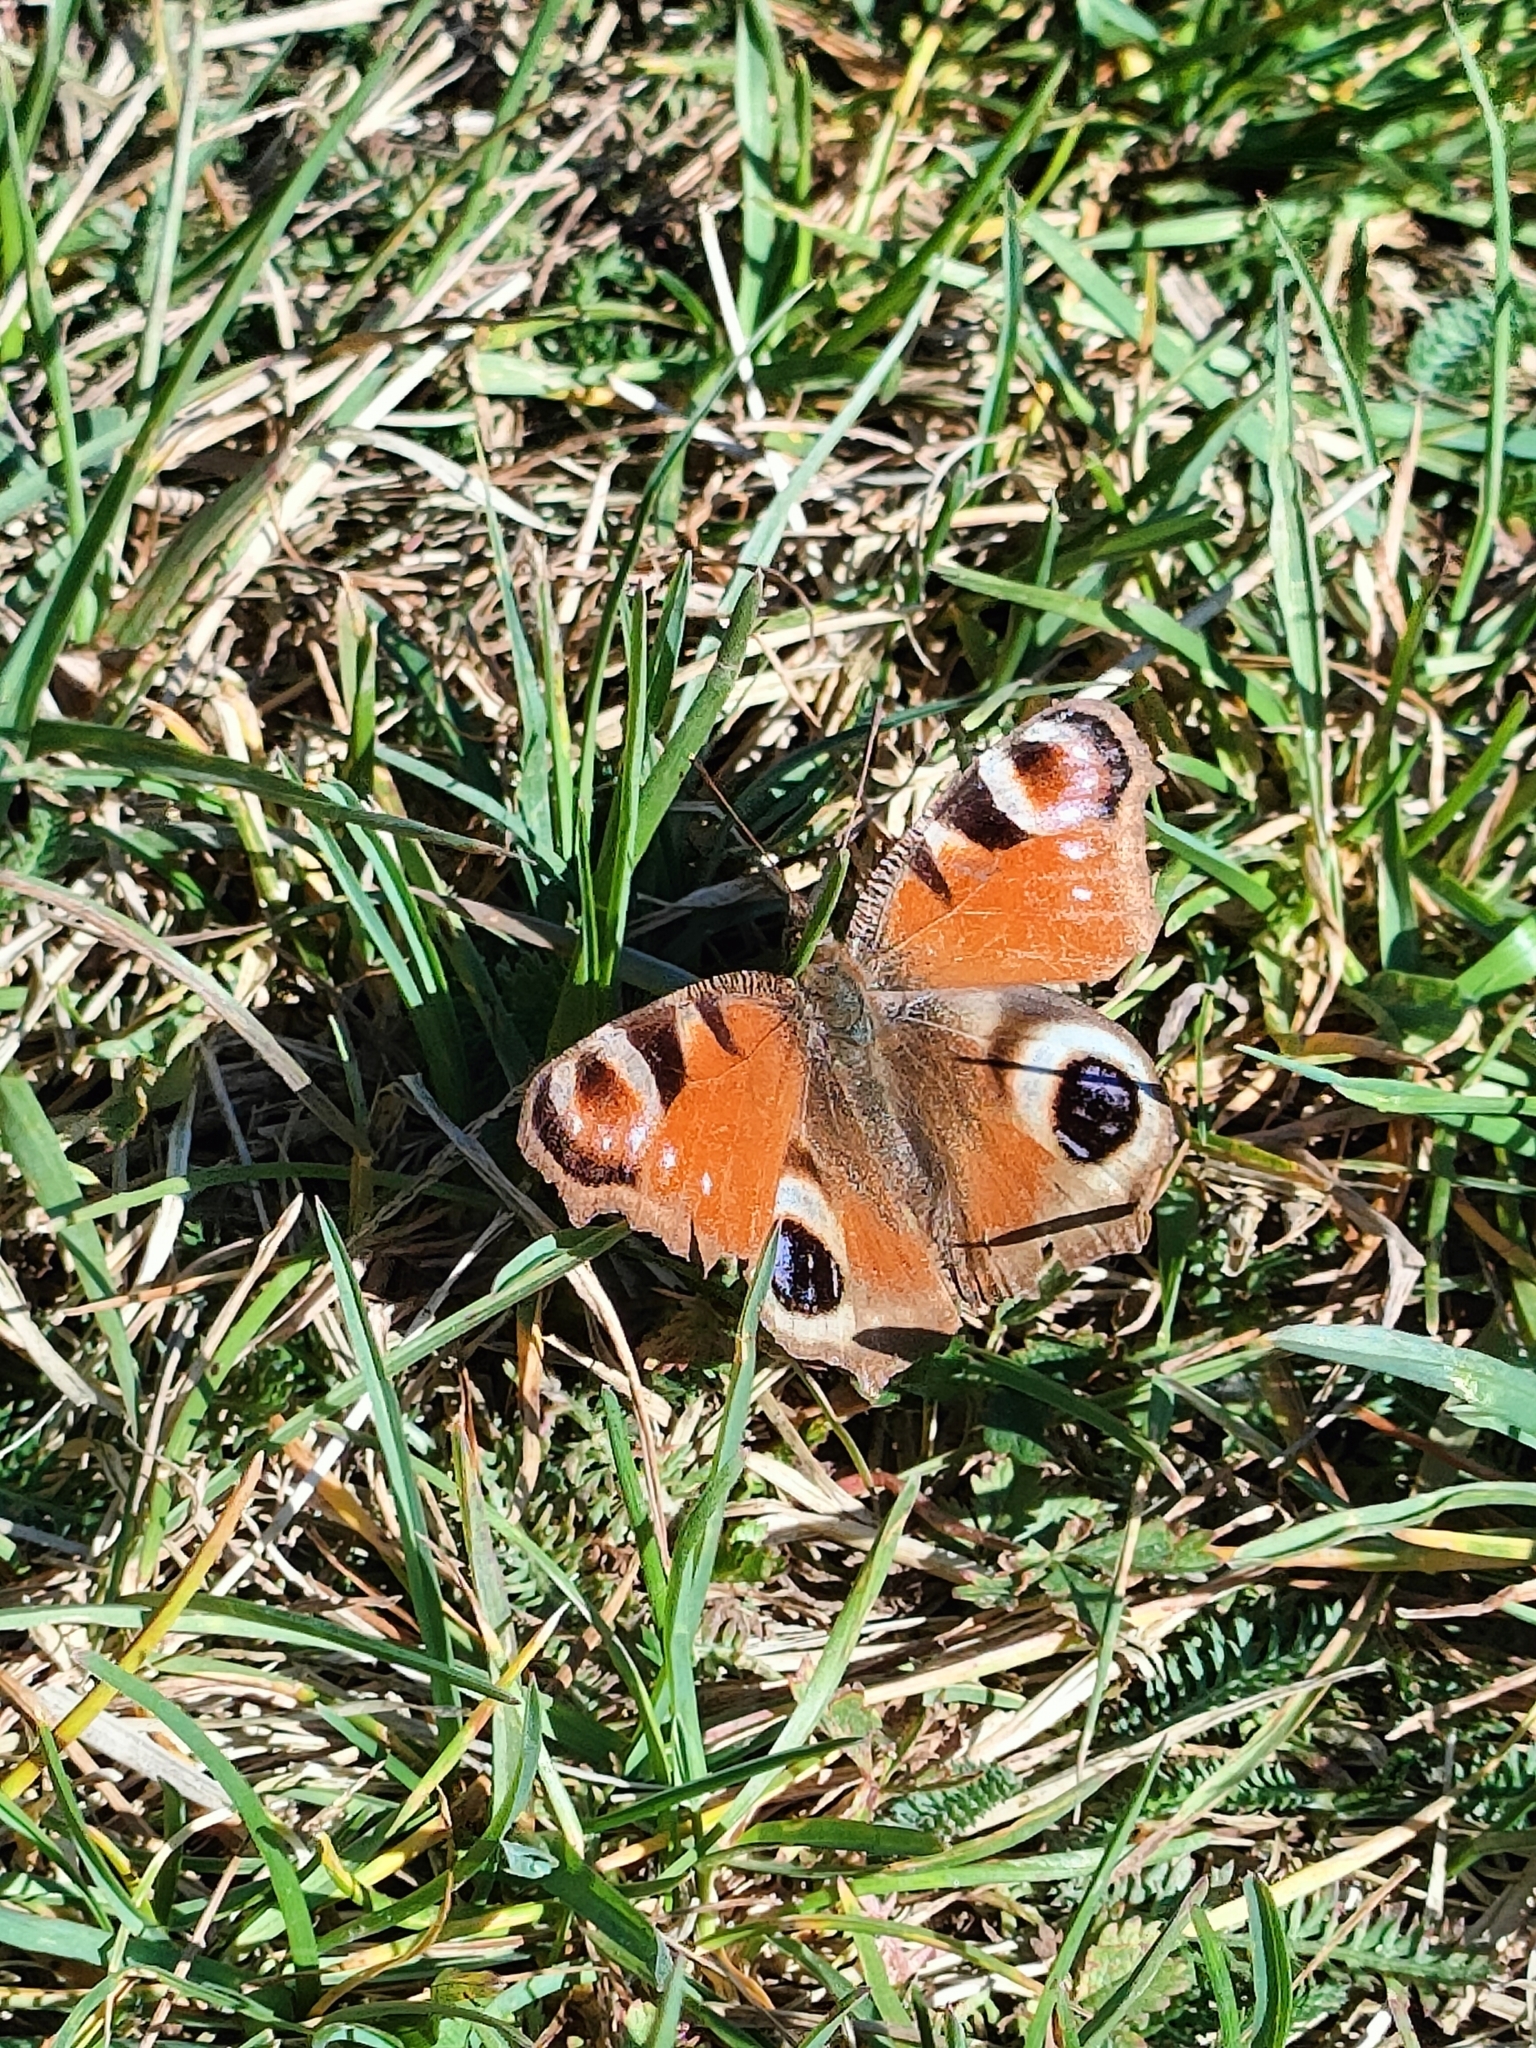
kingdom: Animalia
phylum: Arthropoda
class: Insecta
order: Lepidoptera
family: Nymphalidae
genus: Aglais
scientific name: Aglais io
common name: Peacock
